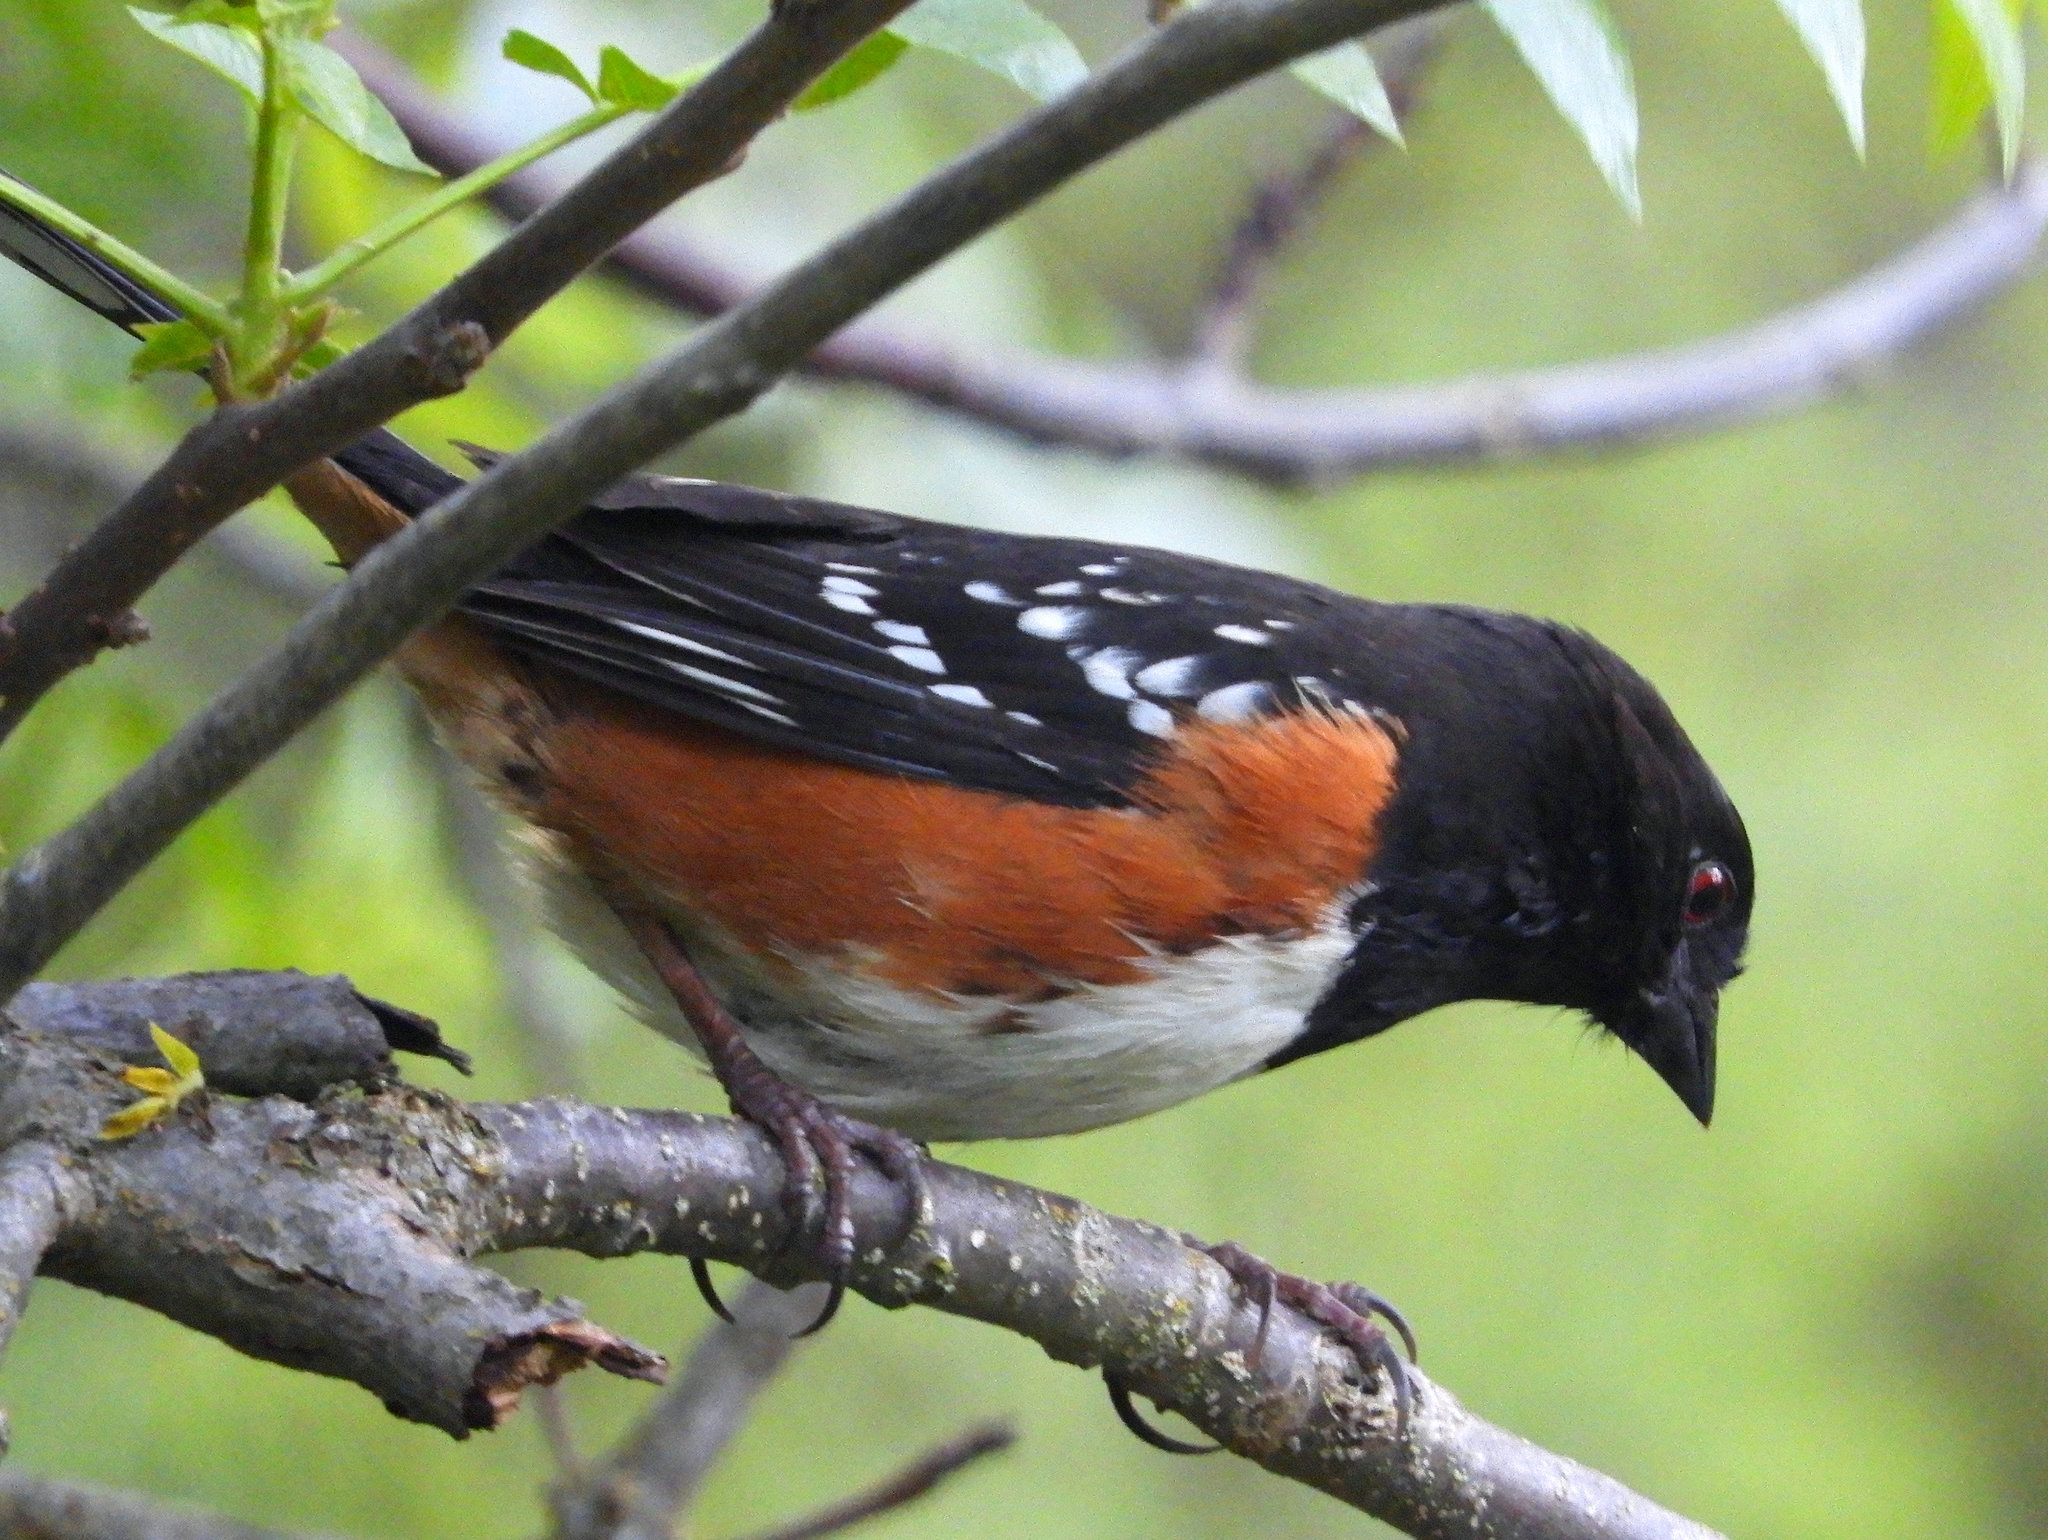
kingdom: Animalia
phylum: Chordata
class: Aves
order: Passeriformes
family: Passerellidae
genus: Pipilo
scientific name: Pipilo maculatus
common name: Spotted towhee
